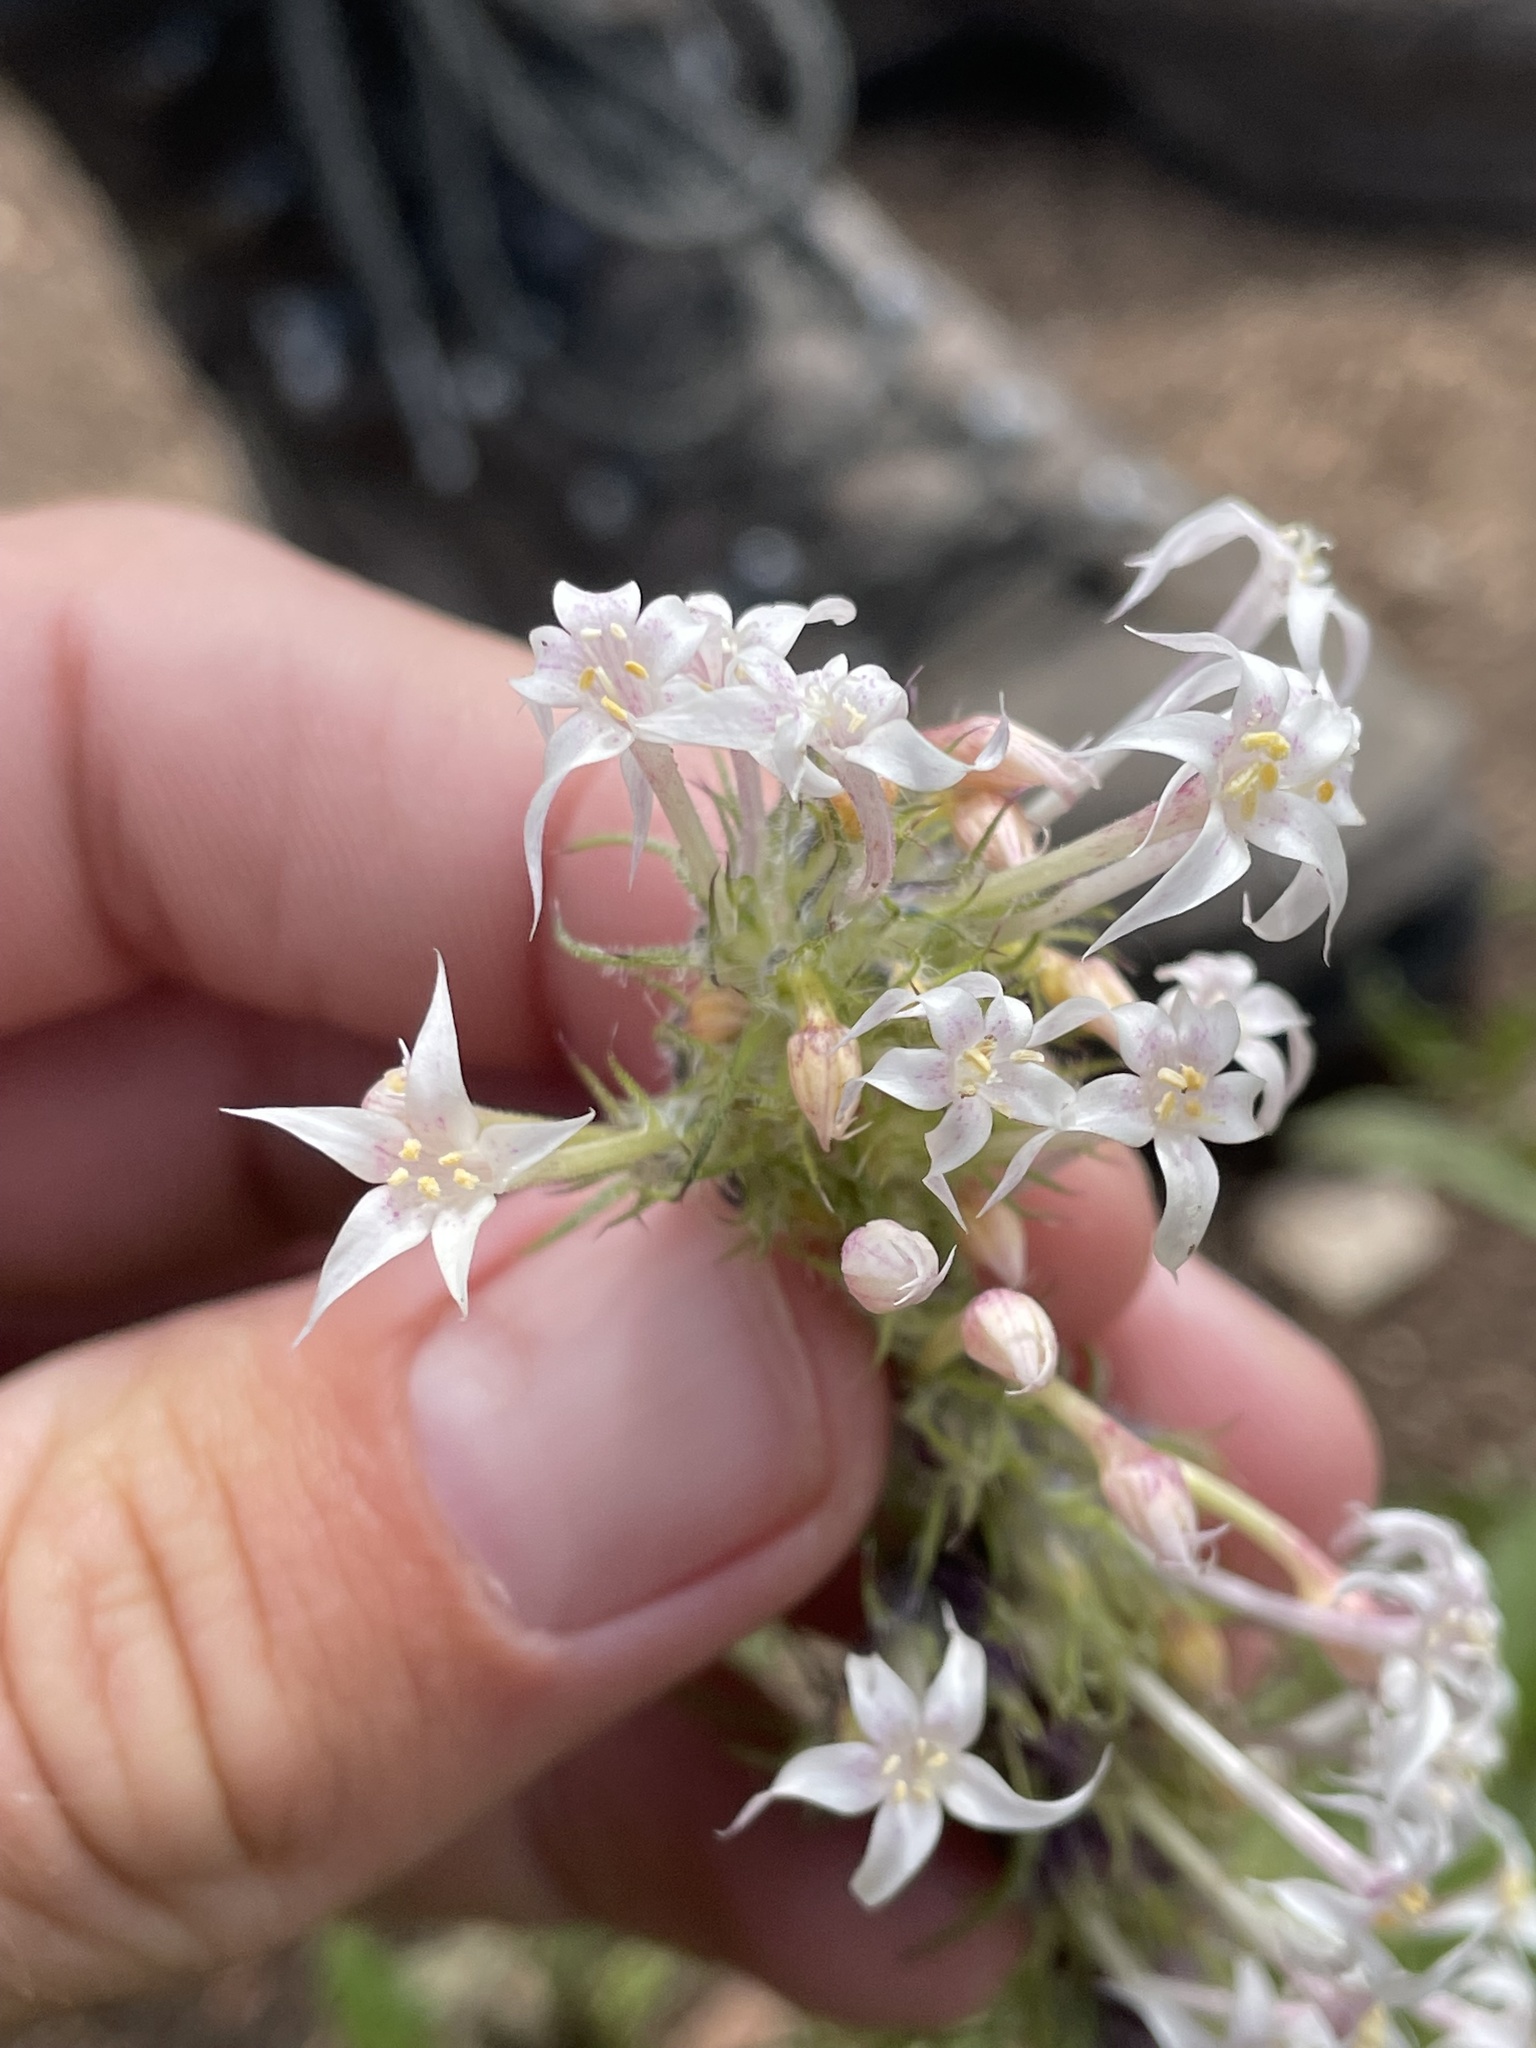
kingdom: Plantae
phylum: Tracheophyta
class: Magnoliopsida
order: Ericales
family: Polemoniaceae
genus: Ipomopsis
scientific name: Ipomopsis aggregata
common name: Scarlet gilia
